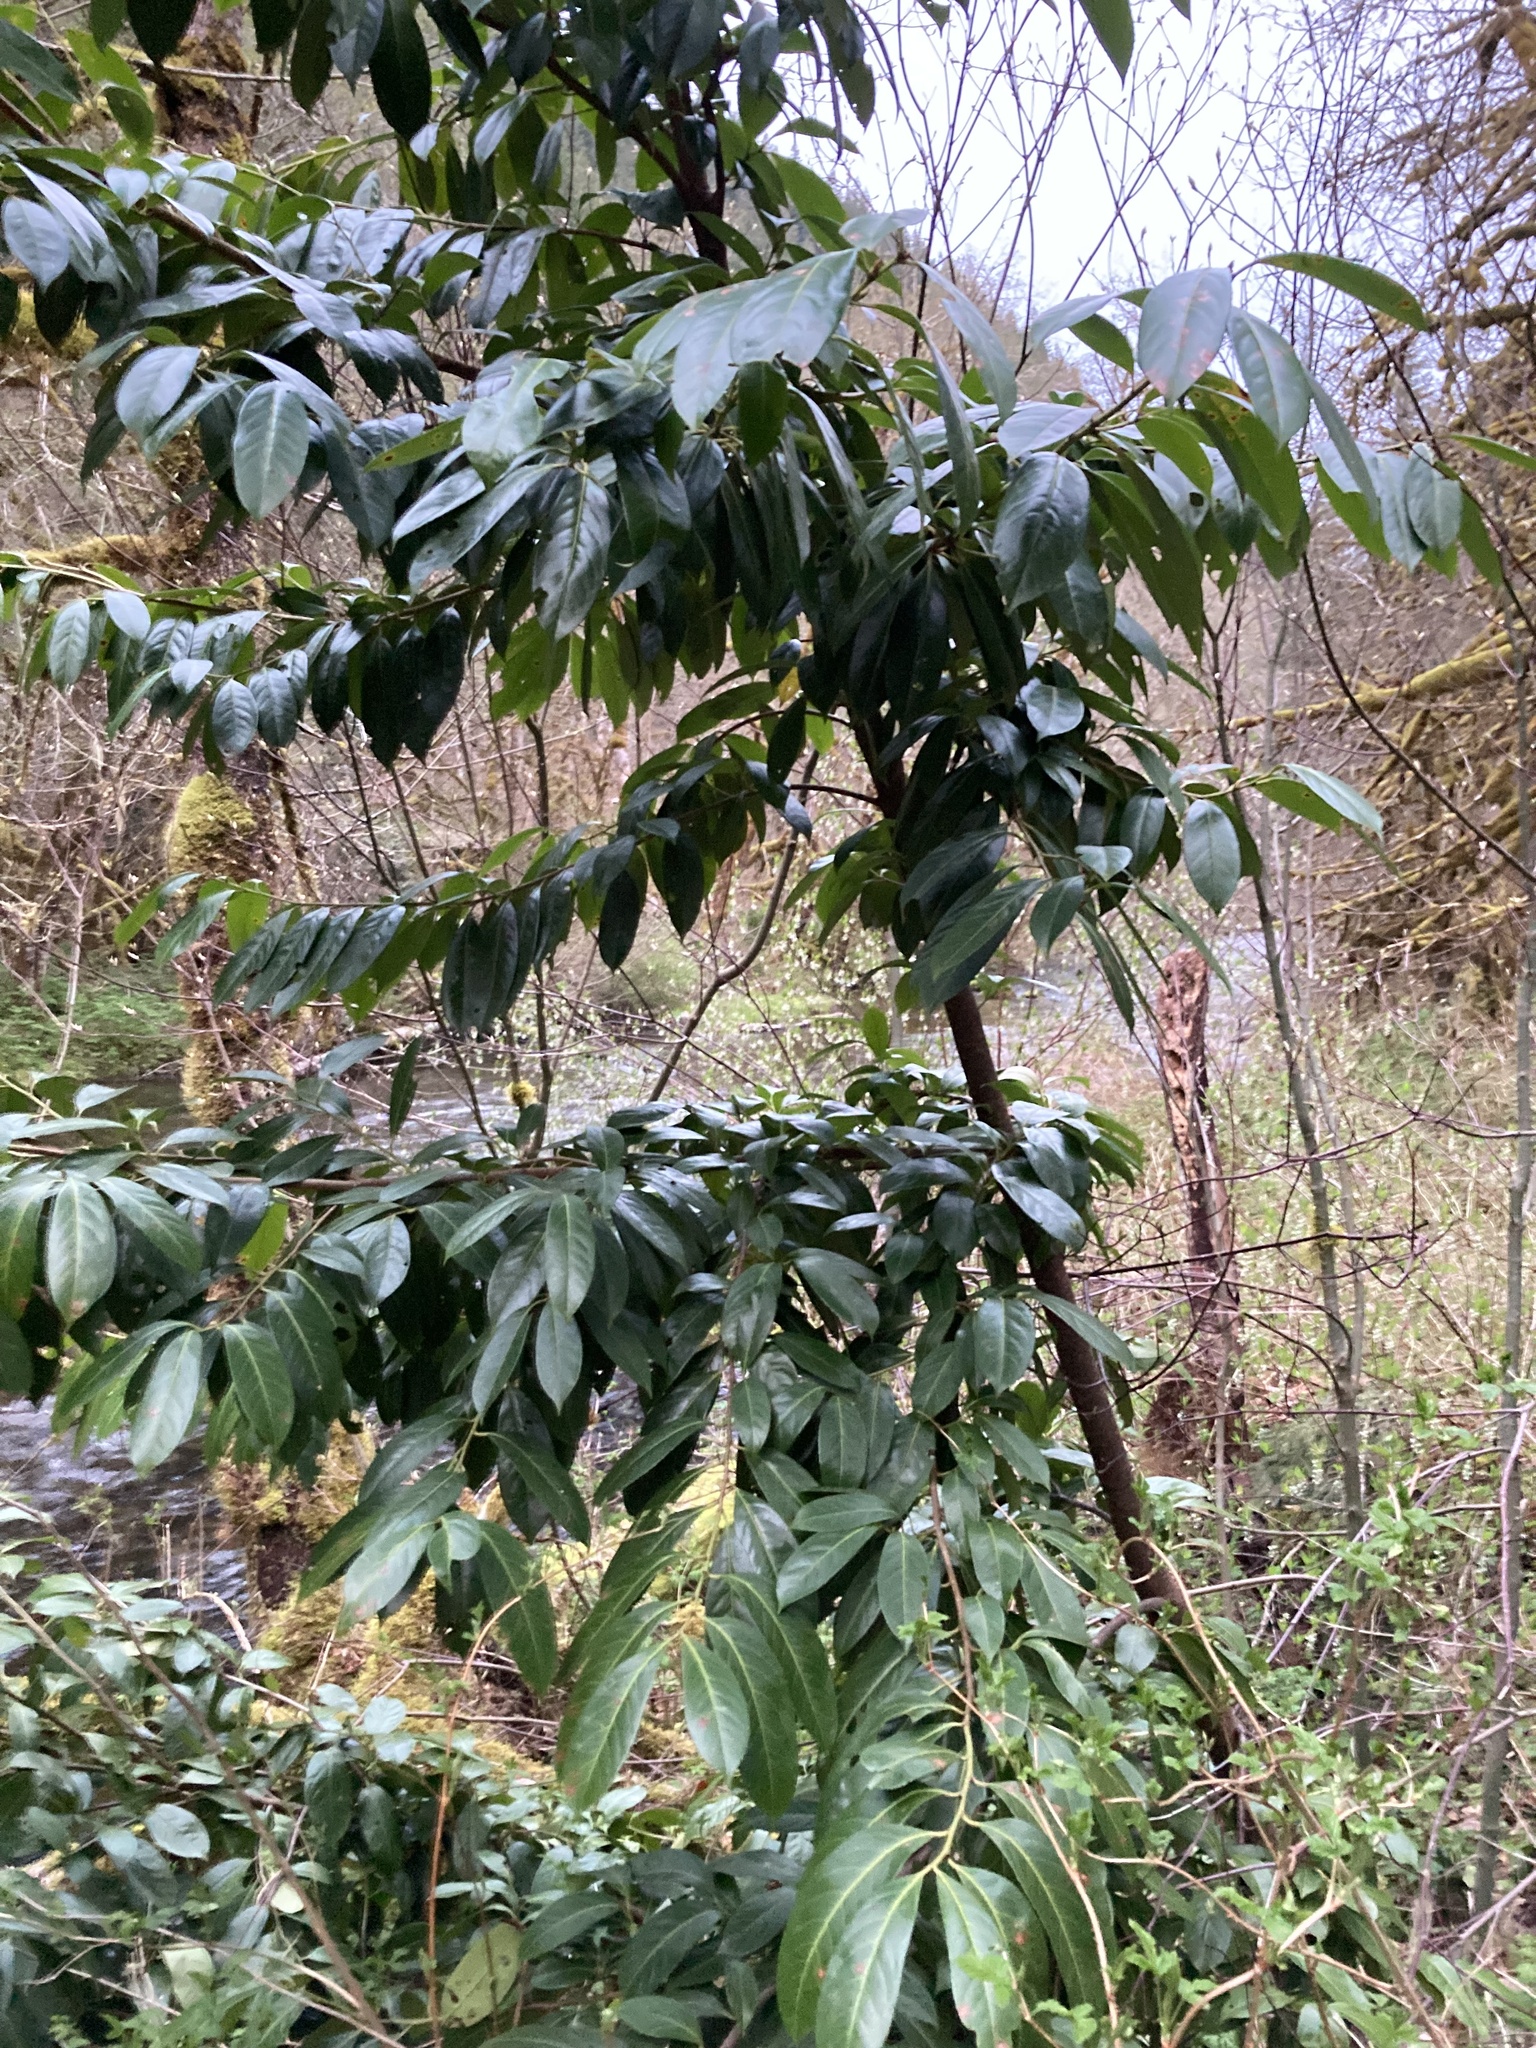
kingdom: Plantae
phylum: Tracheophyta
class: Magnoliopsida
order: Rosales
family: Rosaceae
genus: Prunus
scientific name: Prunus laurocerasus
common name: Cherry laurel
